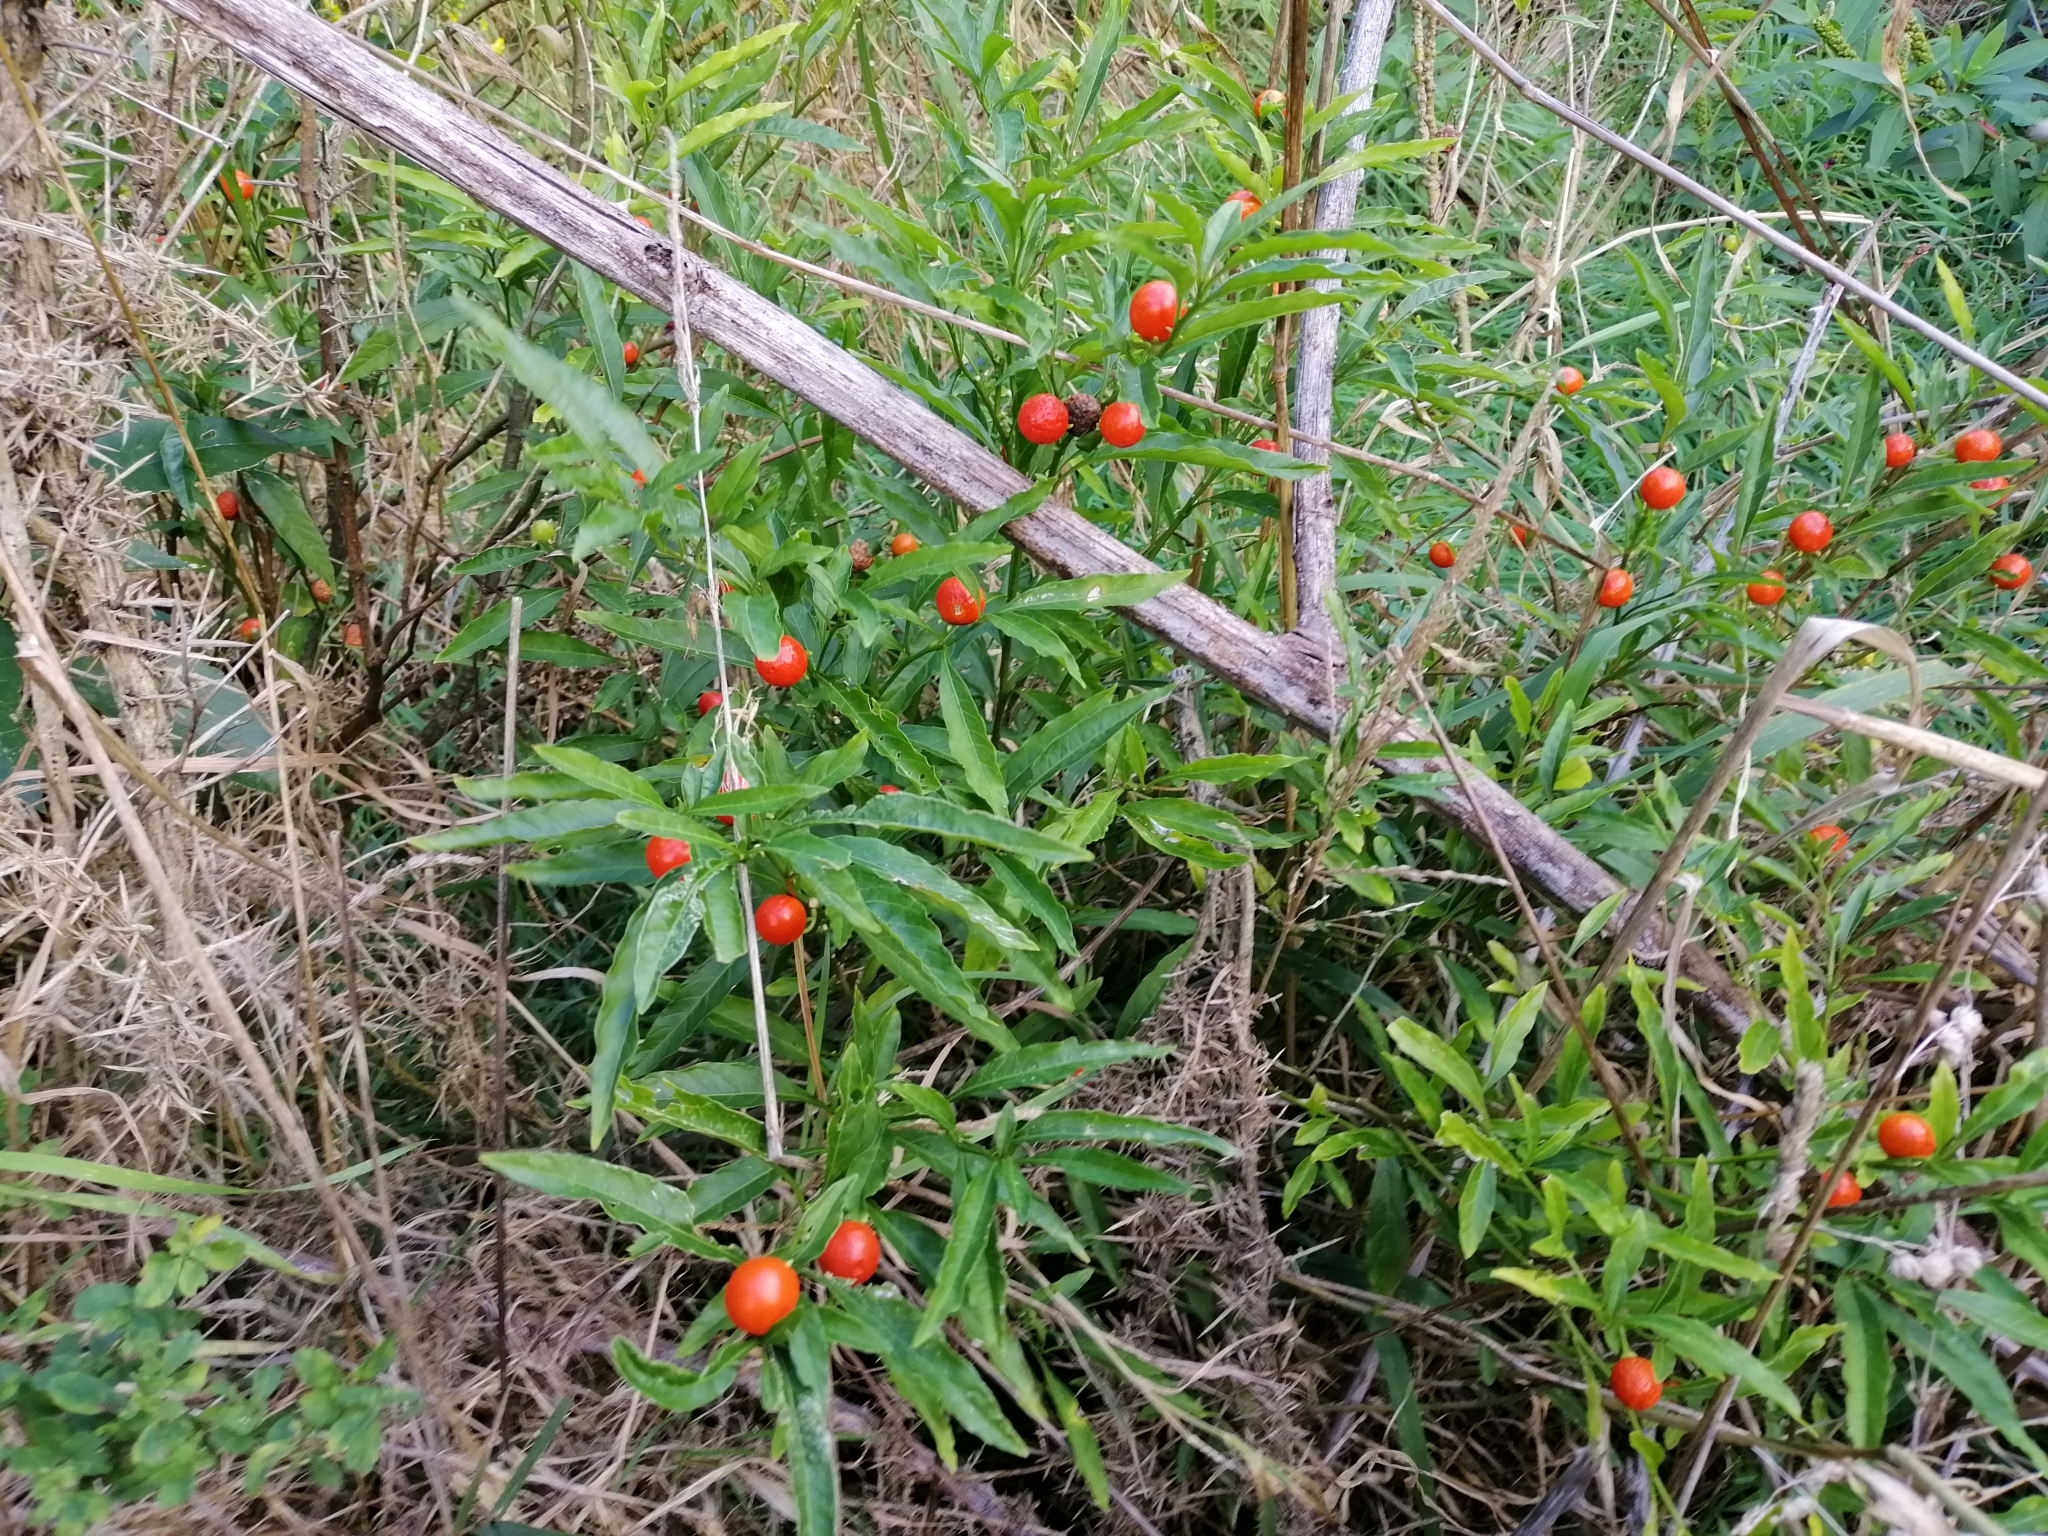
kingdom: Plantae
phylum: Tracheophyta
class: Magnoliopsida
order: Solanales
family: Solanaceae
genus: Solanum
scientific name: Solanum pseudocapsicum
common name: Jerusalem cherry
